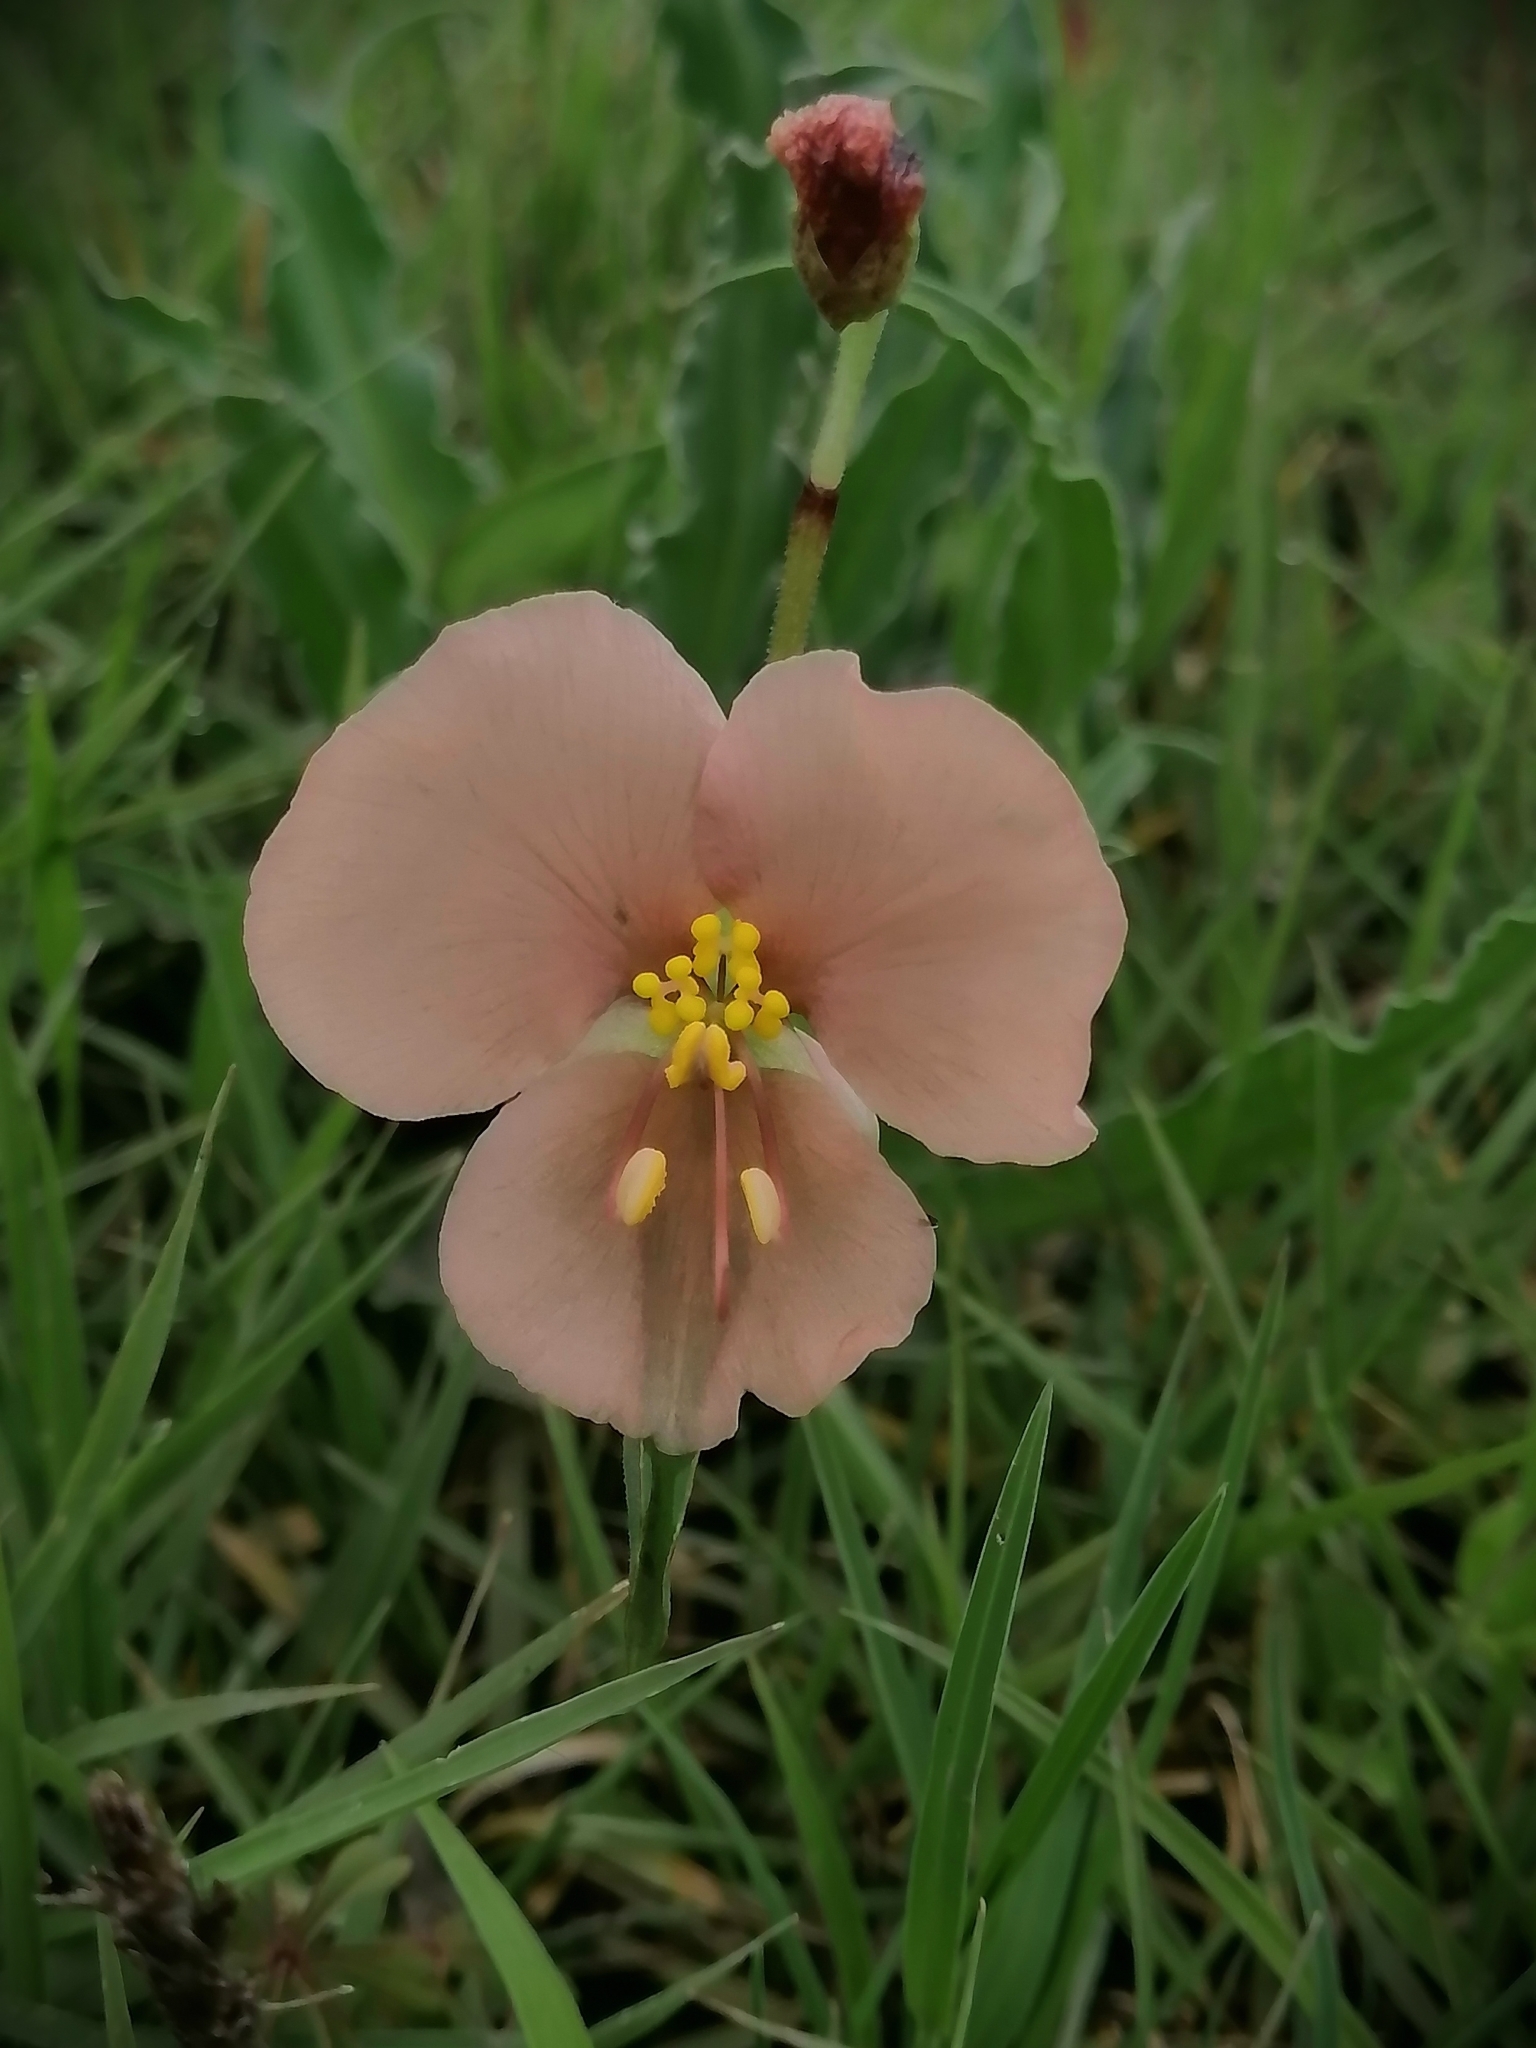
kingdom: Plantae
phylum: Tracheophyta
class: Liliopsida
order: Commelinales
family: Commelinaceae
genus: Commelina
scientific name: Commelina scabra
